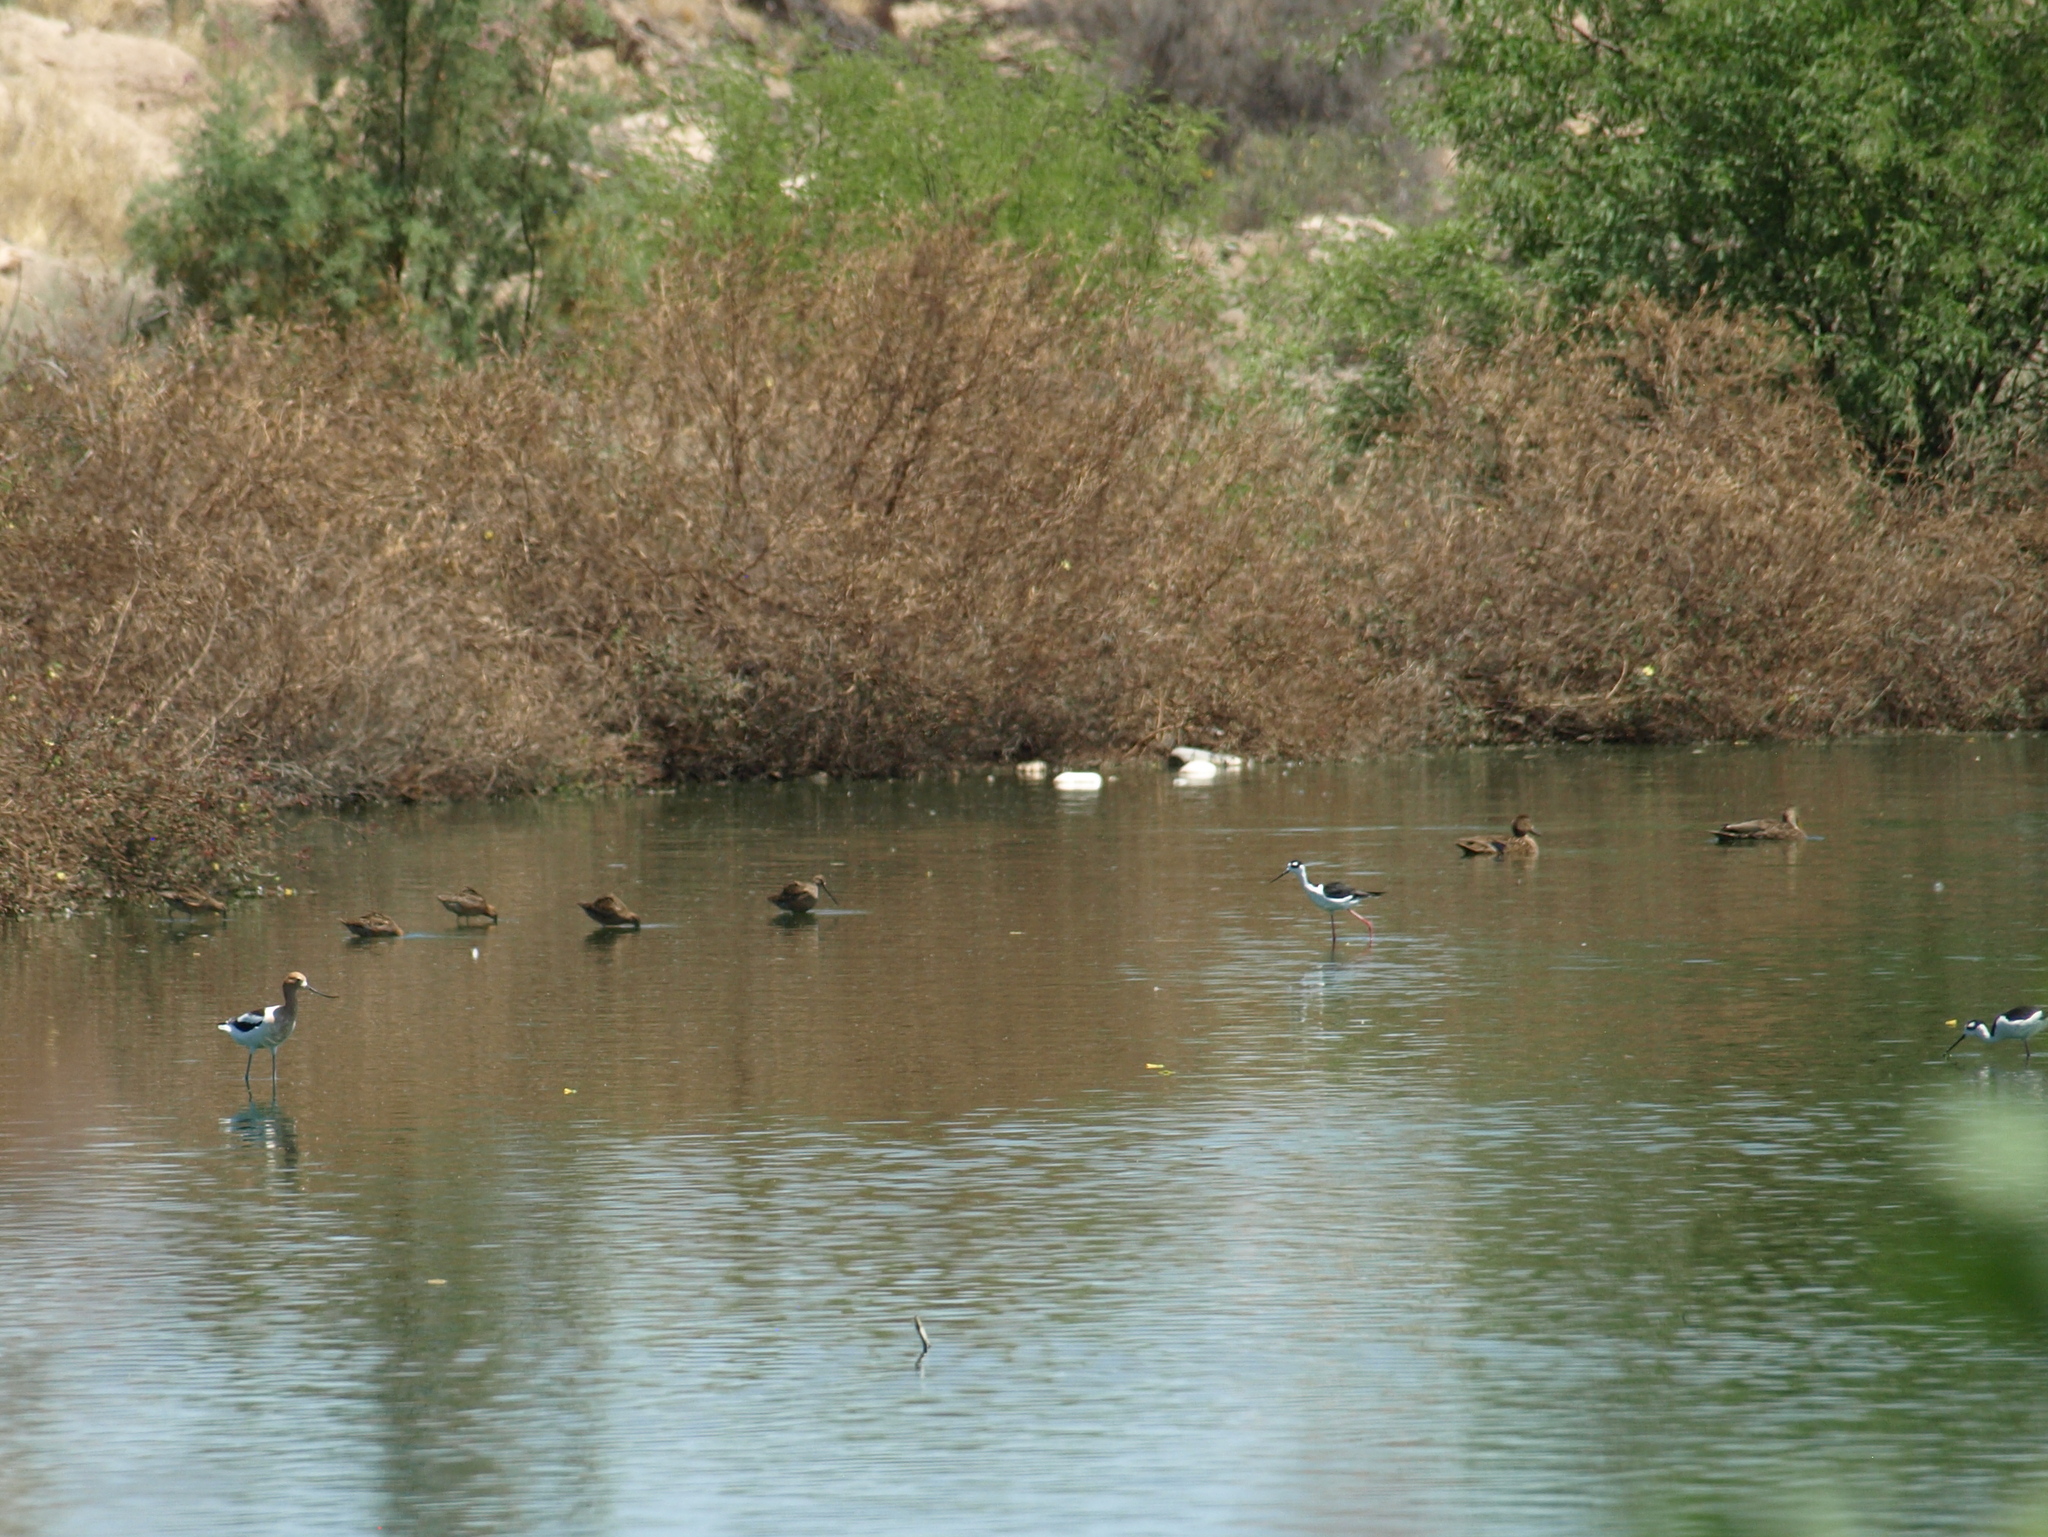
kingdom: Animalia
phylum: Chordata
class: Aves
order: Charadriiformes
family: Recurvirostridae
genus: Recurvirostra
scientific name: Recurvirostra americana
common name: American avocet
